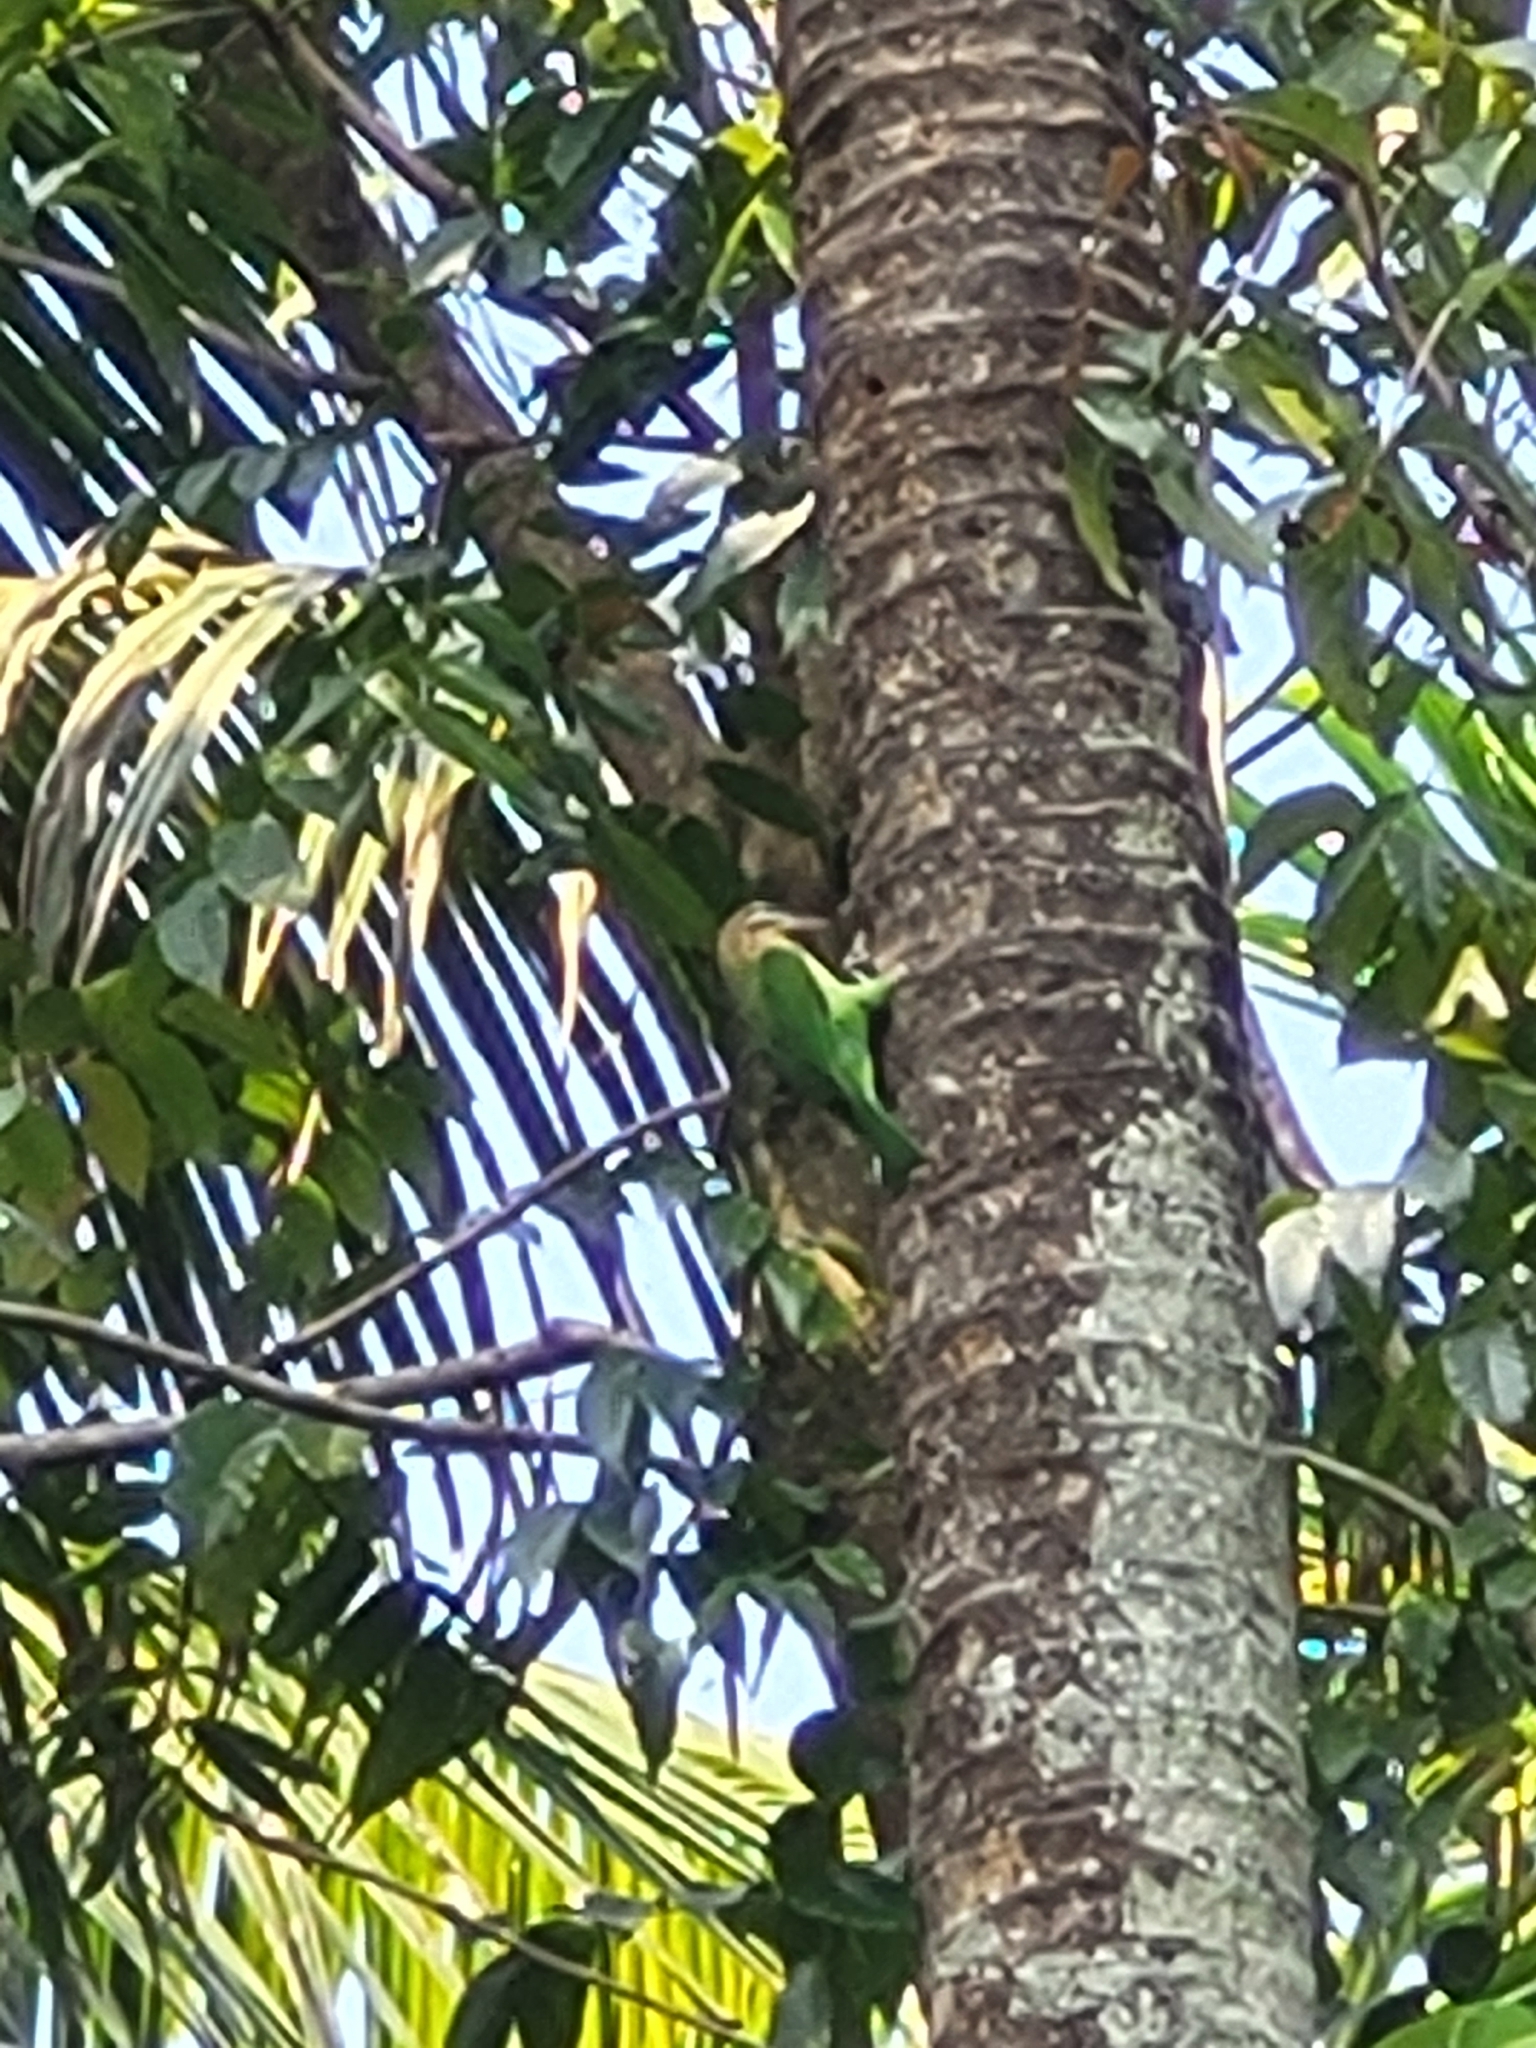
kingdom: Animalia
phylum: Chordata
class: Aves
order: Piciformes
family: Megalaimidae
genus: Psilopogon
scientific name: Psilopogon viridis
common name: White-cheeked barbet
